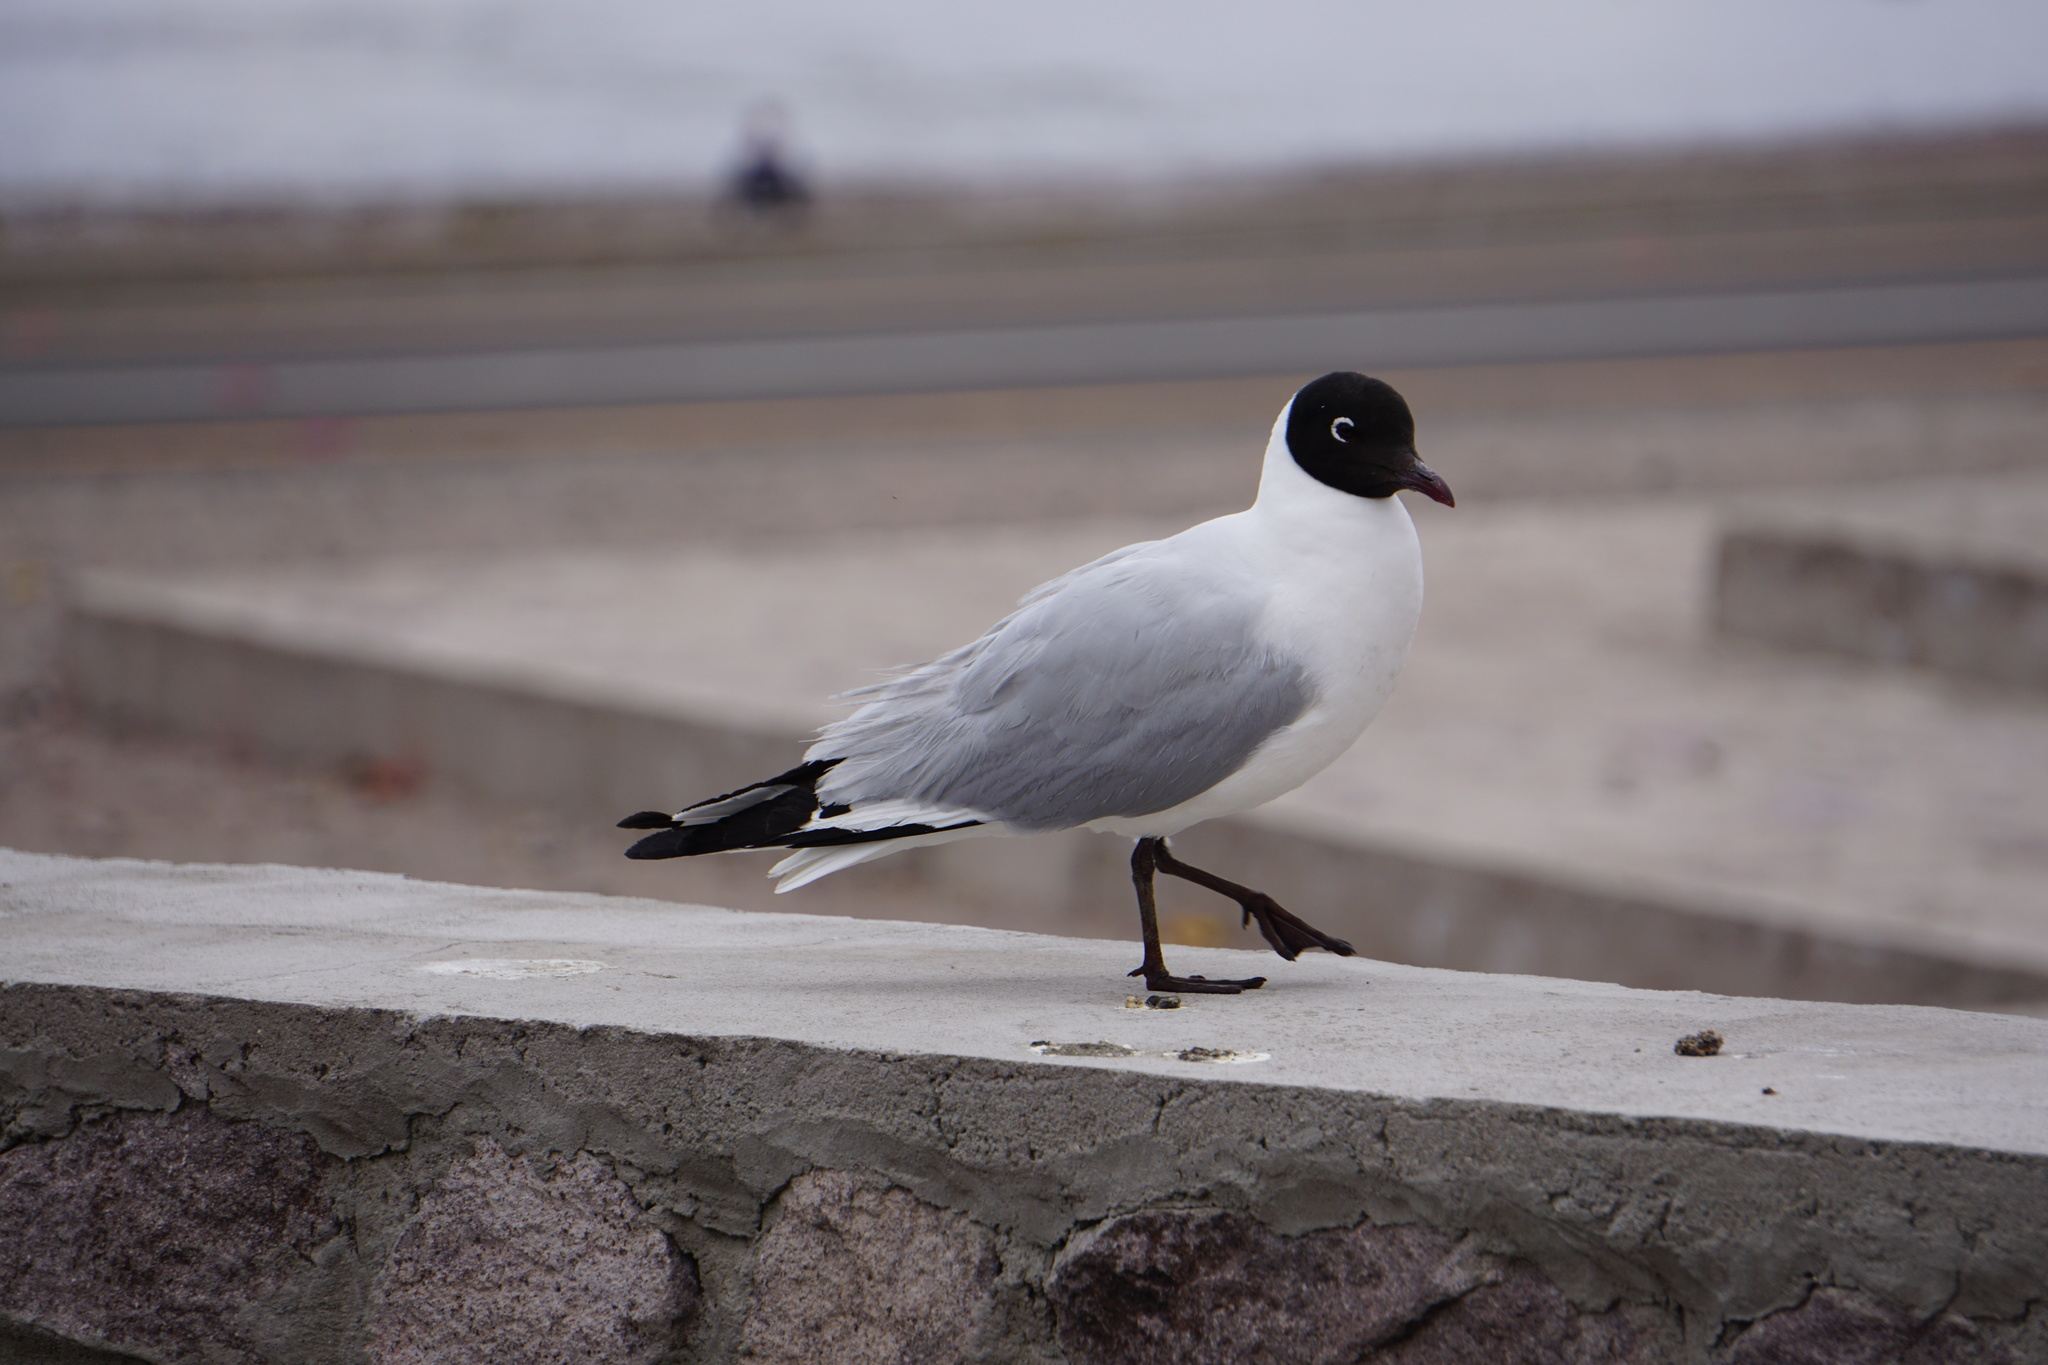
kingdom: Animalia
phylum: Chordata
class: Aves
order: Charadriiformes
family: Laridae
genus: Chroicocephalus
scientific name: Chroicocephalus serranus
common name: Andean gull
